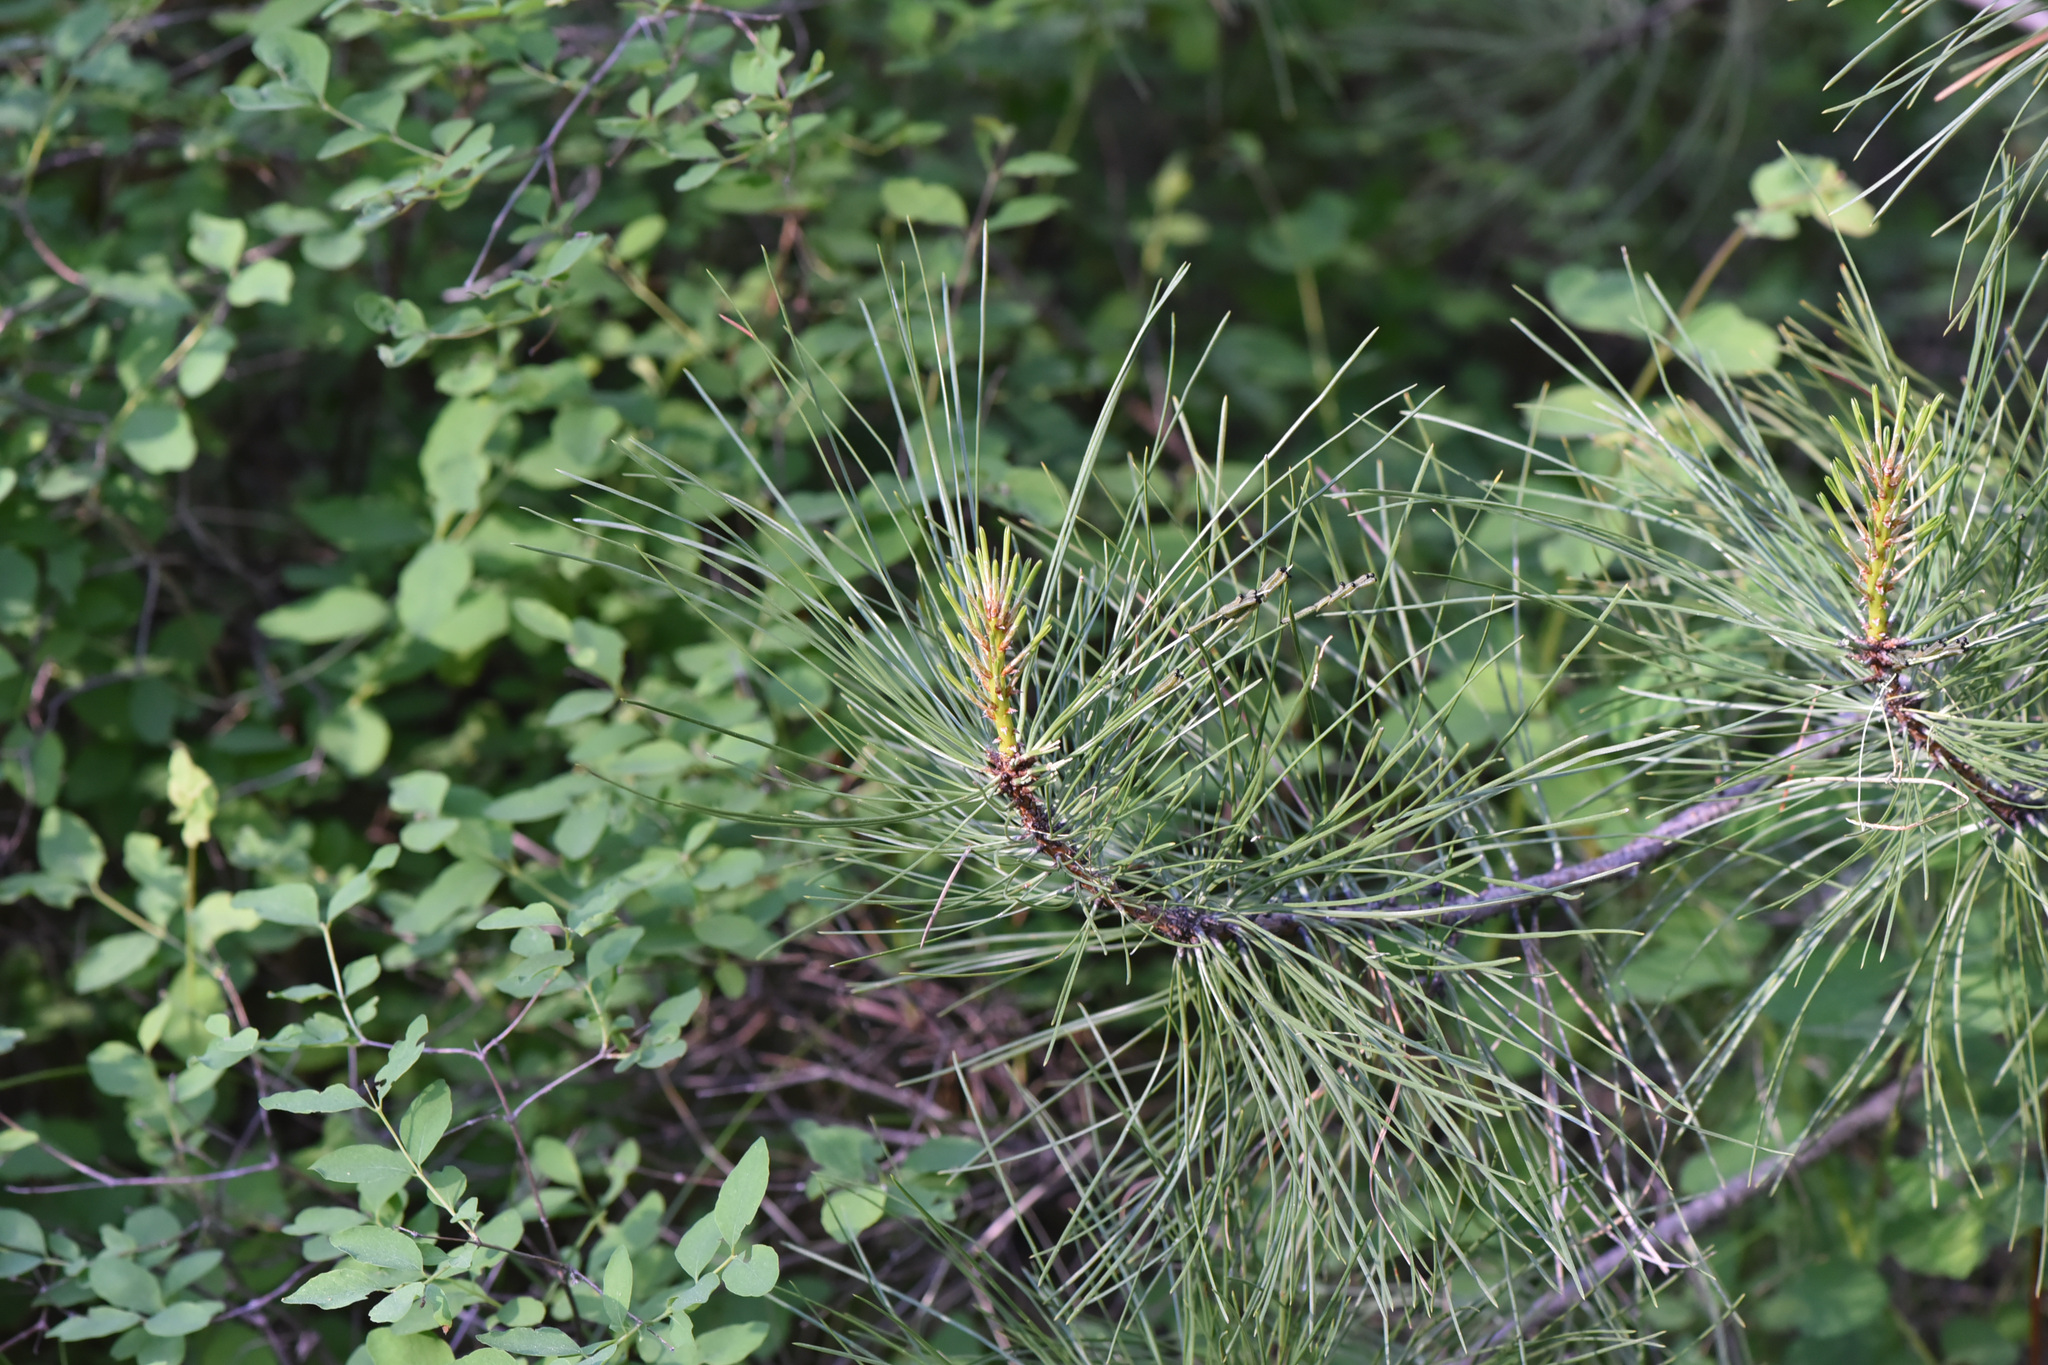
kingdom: Plantae
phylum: Tracheophyta
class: Pinopsida
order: Pinales
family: Pinaceae
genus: Pinus
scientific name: Pinus ponderosa
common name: Western yellow-pine
